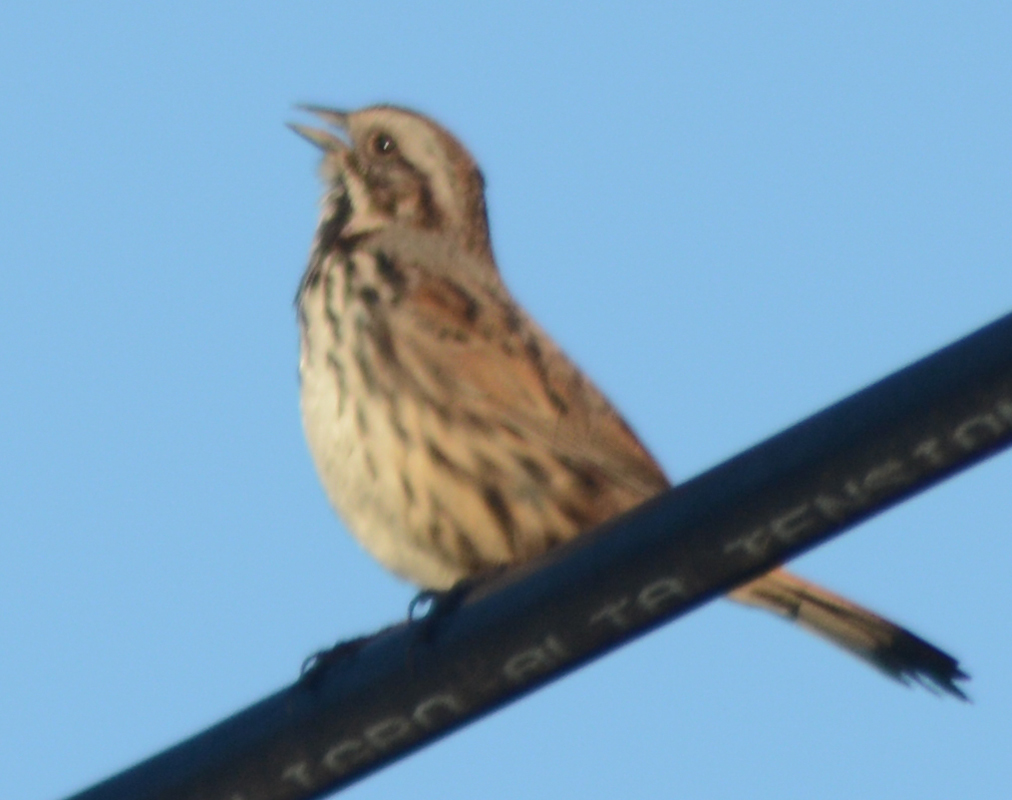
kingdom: Animalia
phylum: Chordata
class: Aves
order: Passeriformes
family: Passerellidae
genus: Melospiza
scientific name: Melospiza melodia
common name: Song sparrow
